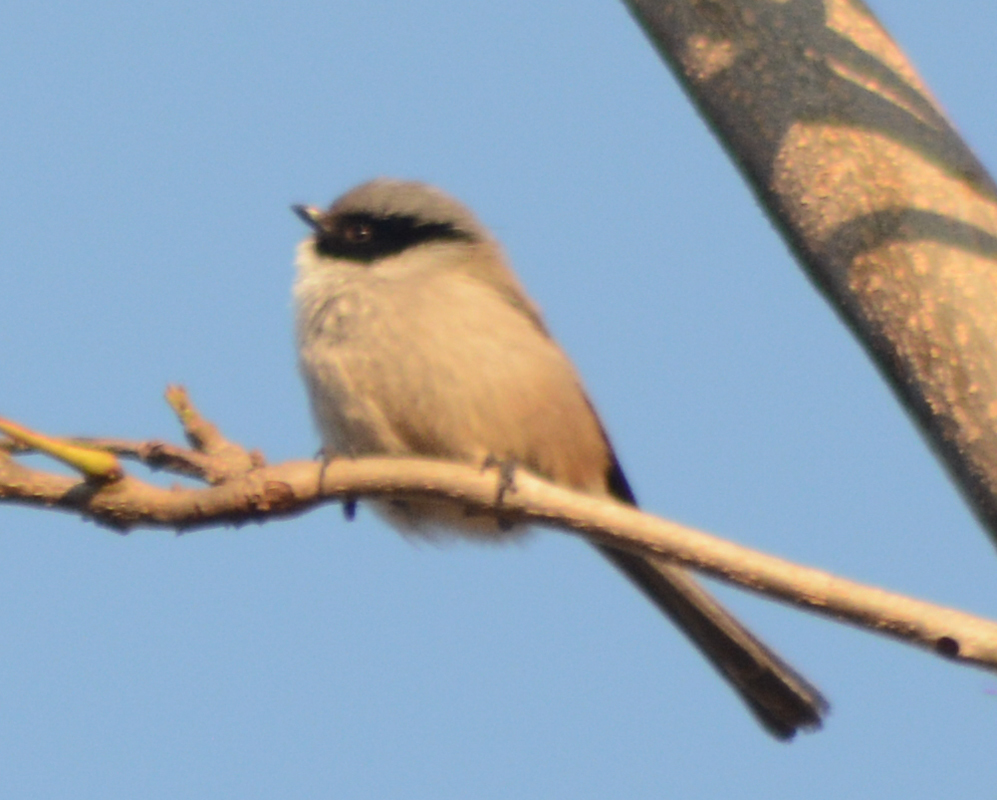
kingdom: Animalia
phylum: Chordata
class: Aves
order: Passeriformes
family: Aegithalidae
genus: Psaltriparus
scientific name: Psaltriparus minimus
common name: American bushtit
